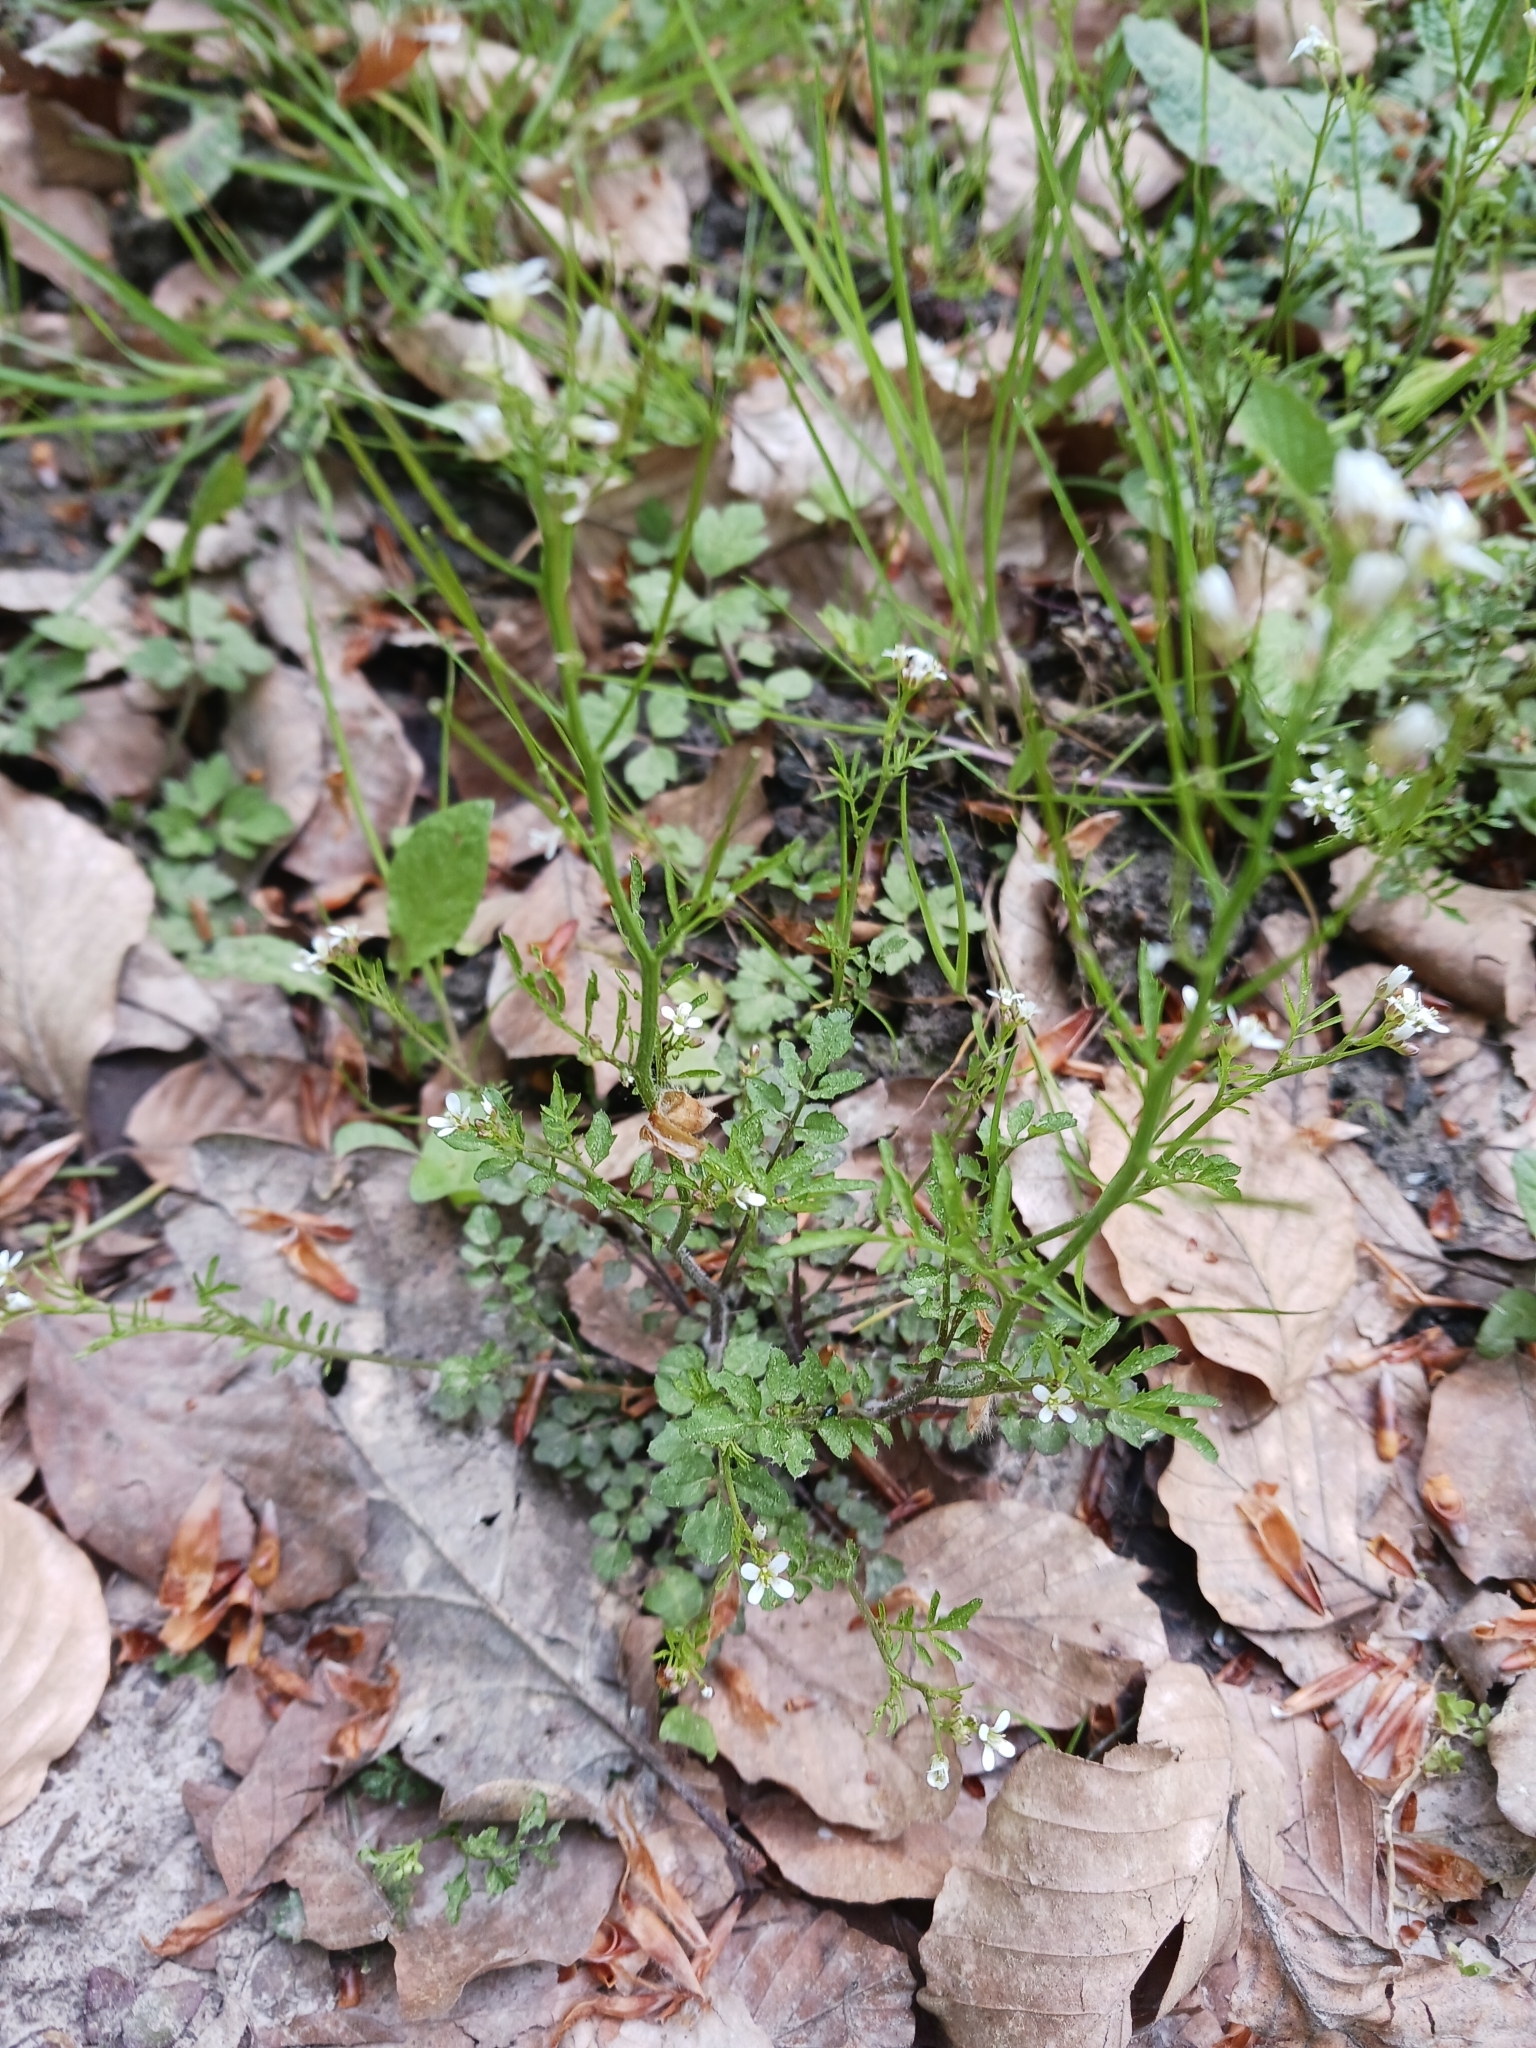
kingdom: Plantae
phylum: Tracheophyta
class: Magnoliopsida
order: Brassicales
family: Brassicaceae
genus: Cardamine
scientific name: Cardamine flexuosa
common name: Woodland bittercress
